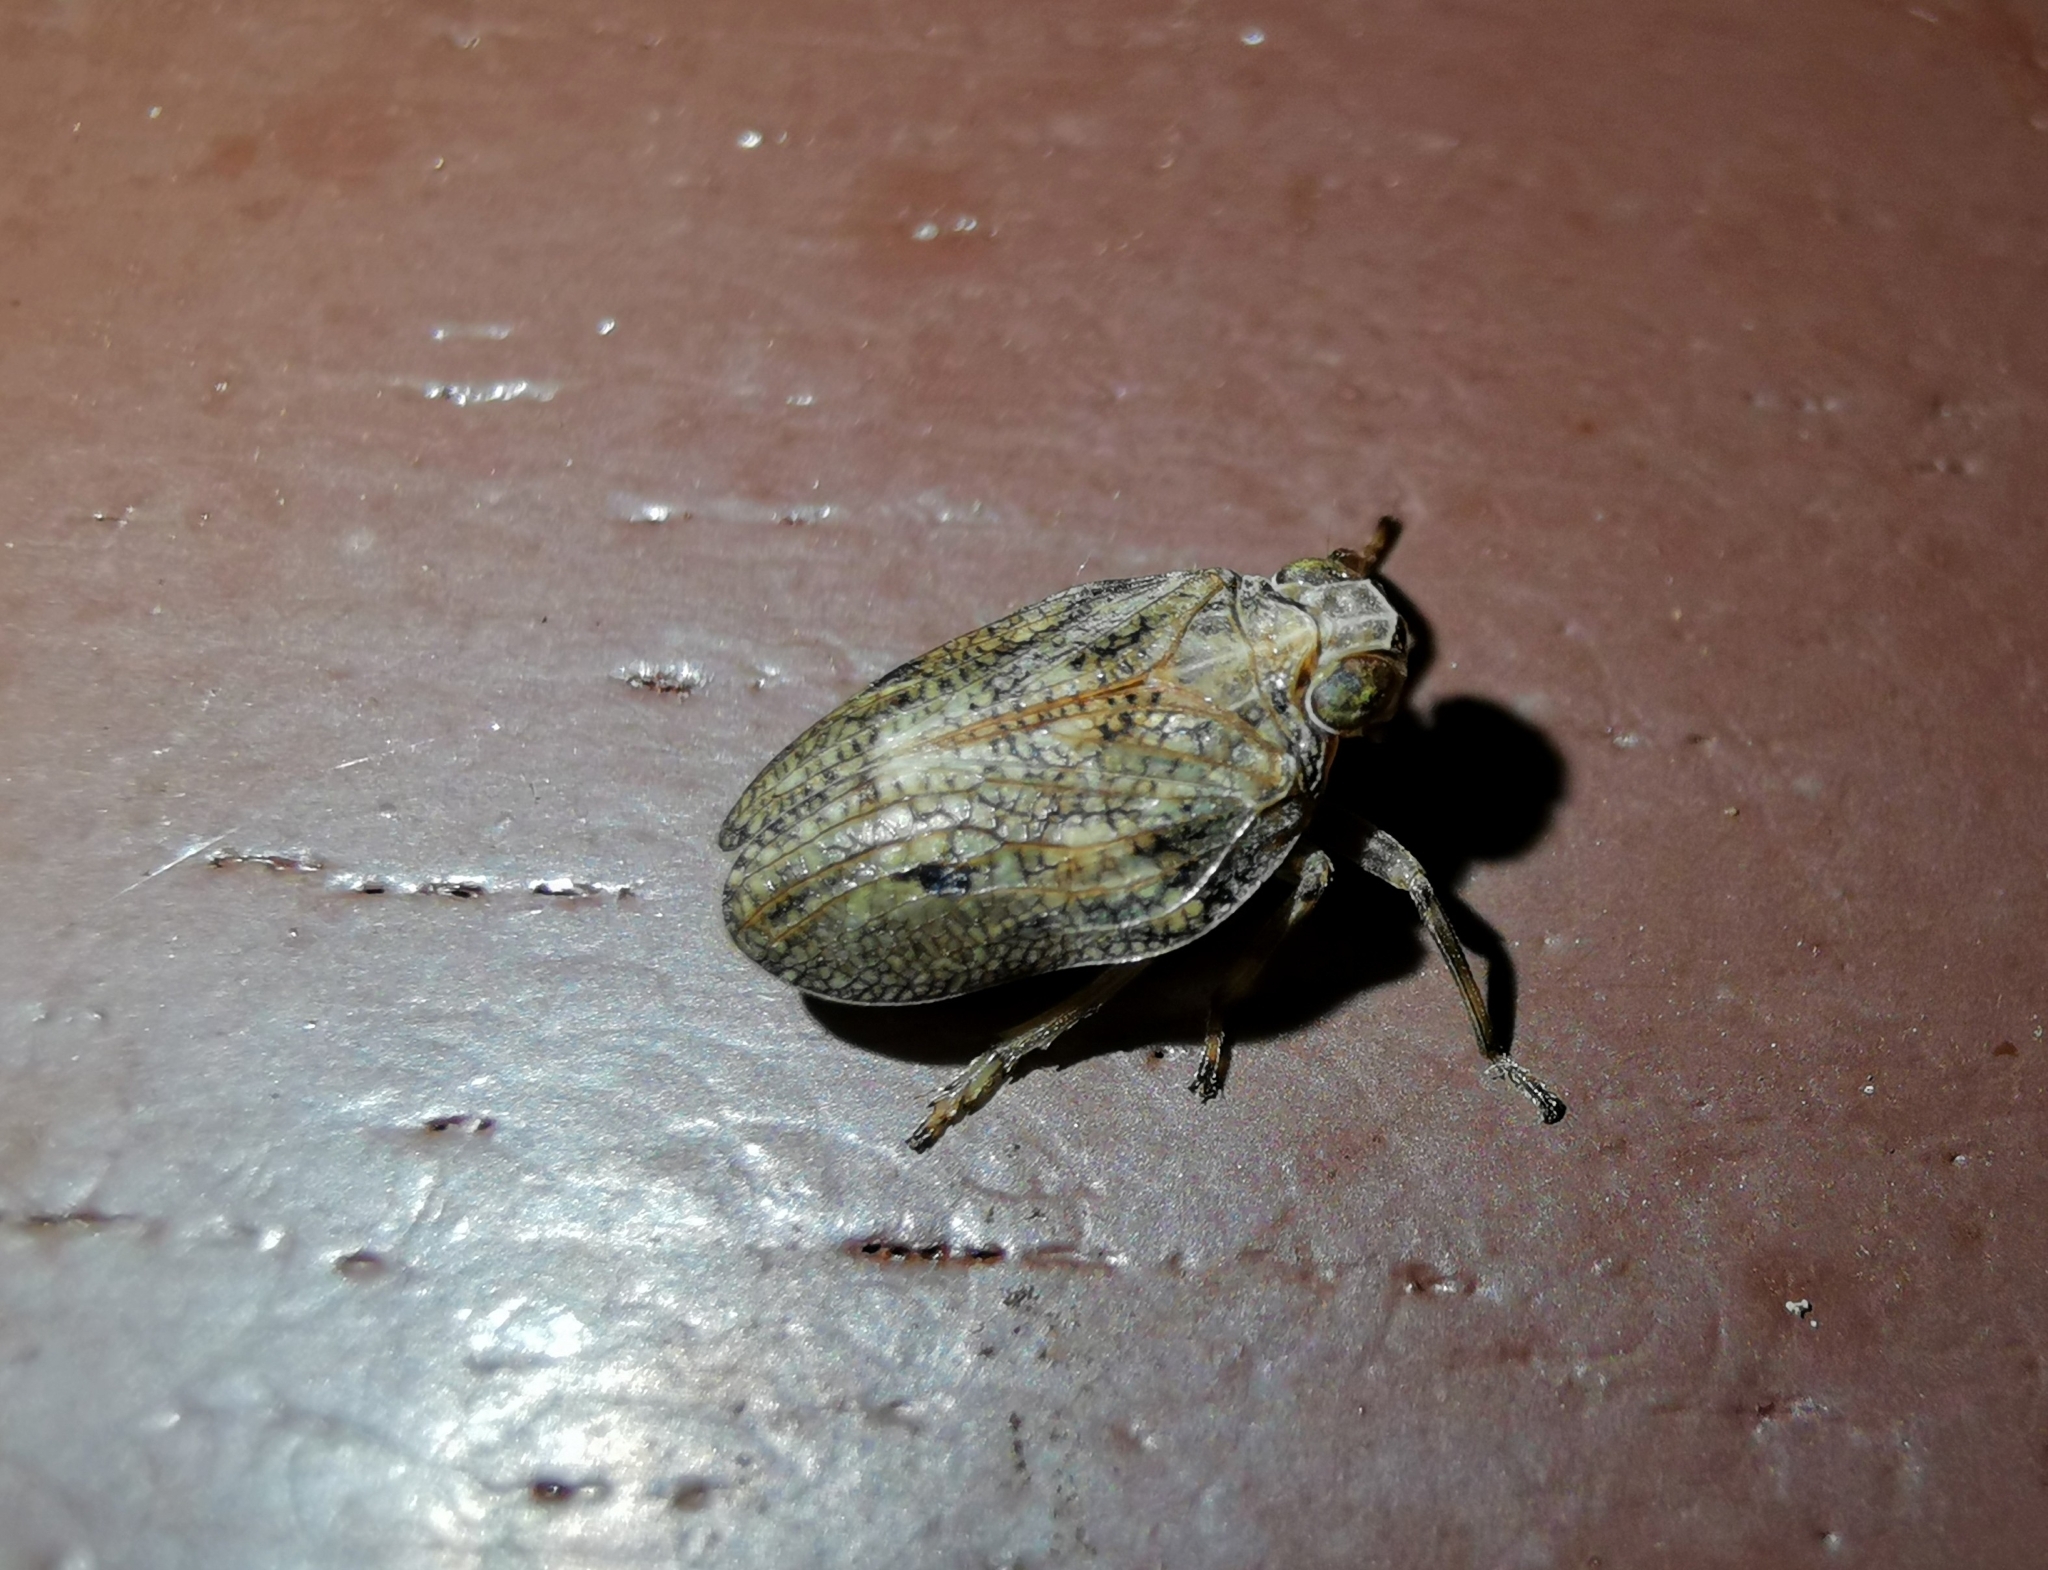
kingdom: Animalia
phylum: Arthropoda
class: Insecta
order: Hemiptera
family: Issidae
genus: Issus
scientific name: Issus coleoptratus
